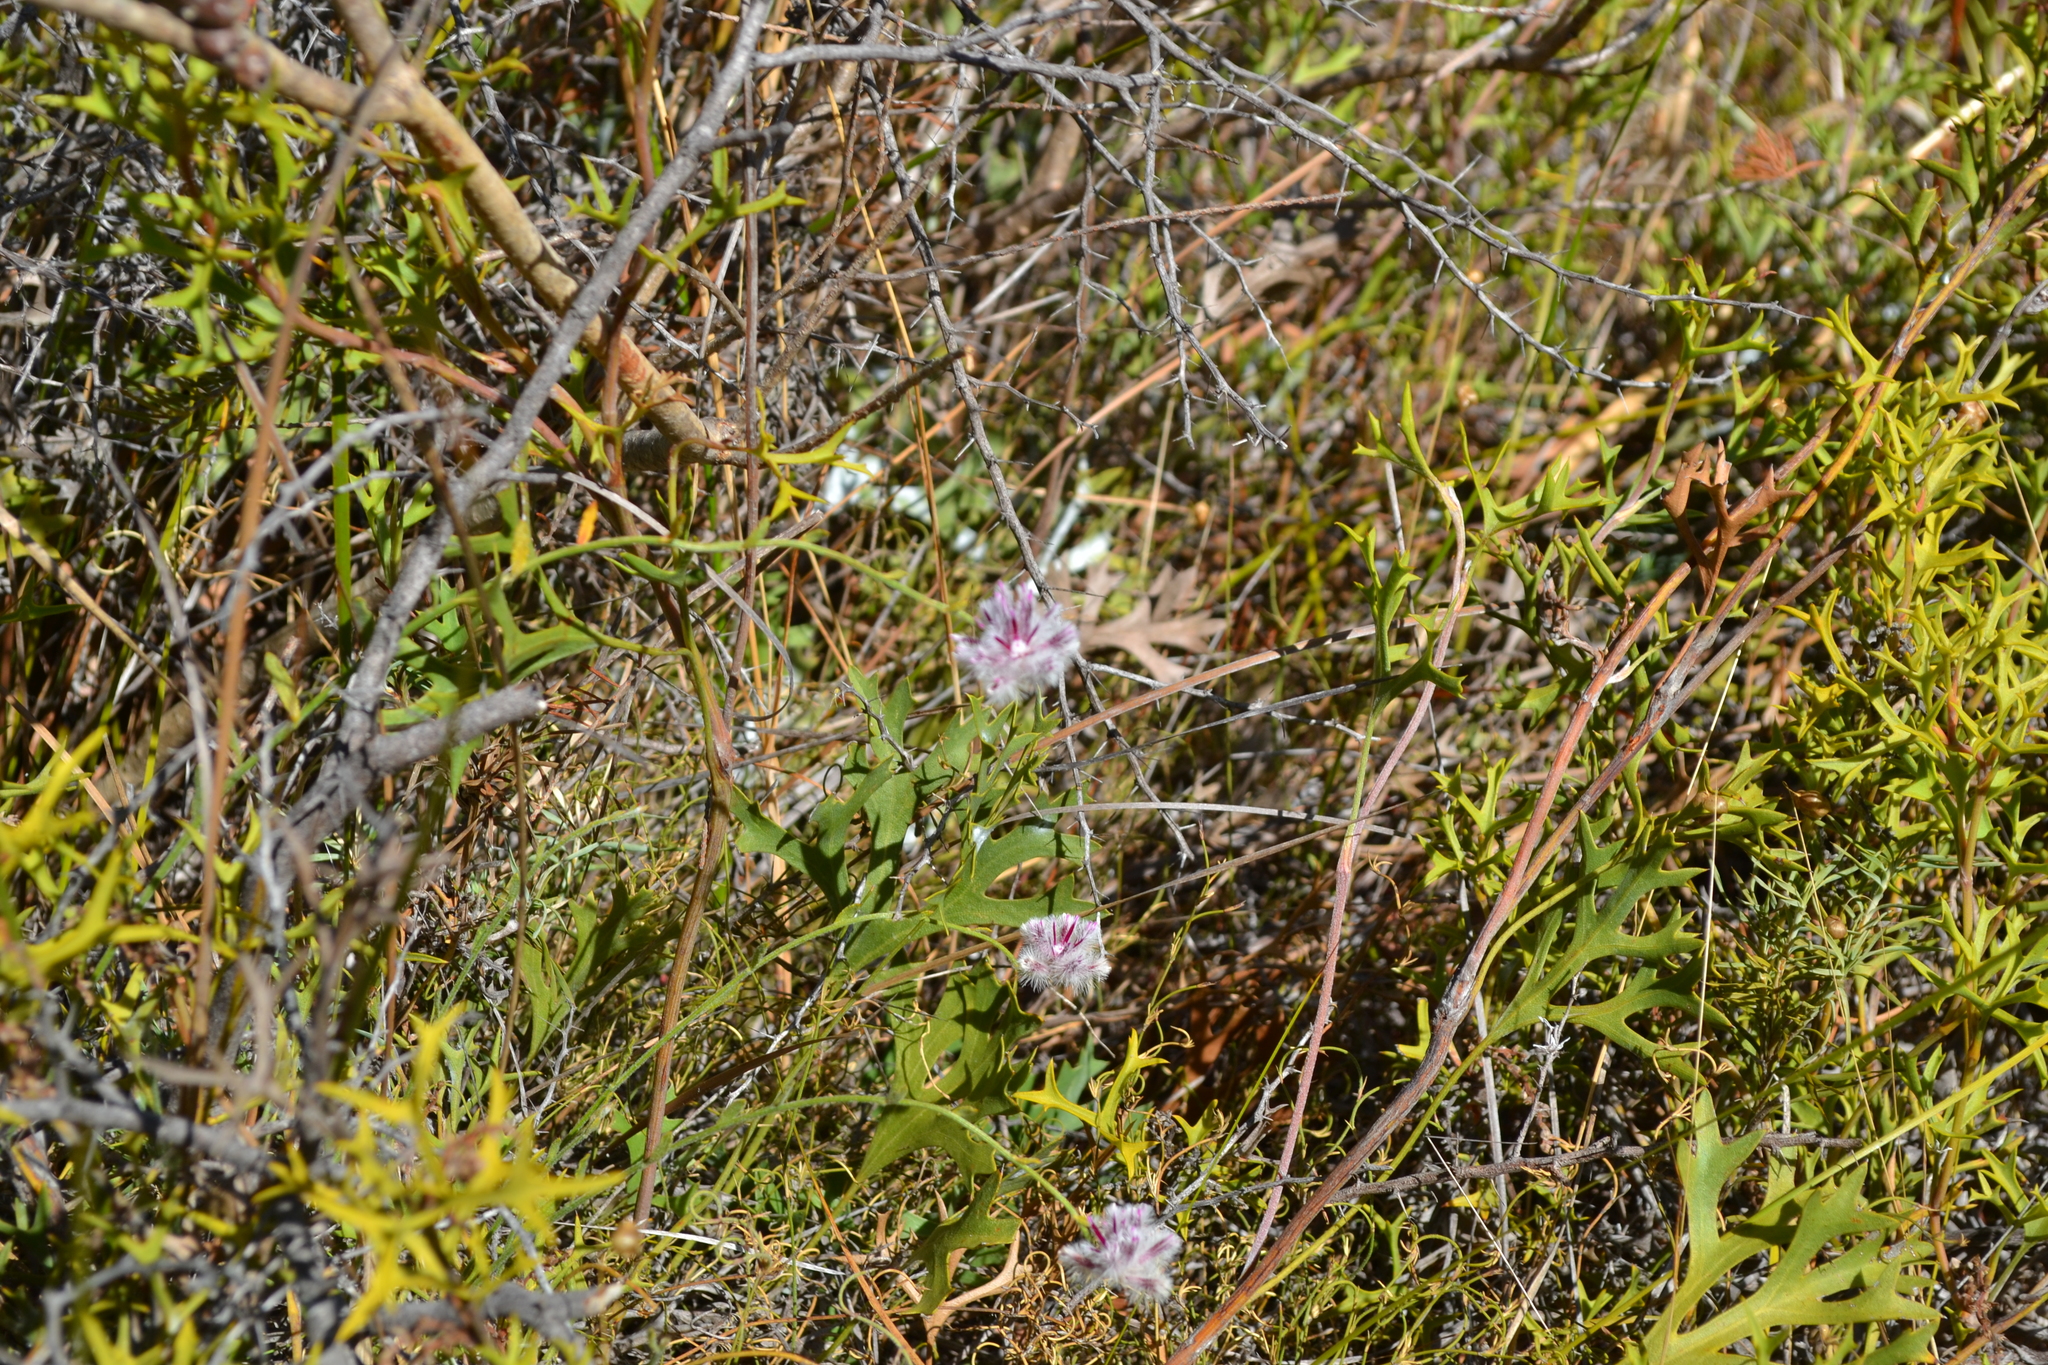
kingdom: Plantae
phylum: Tracheophyta
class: Magnoliopsida
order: Caryophyllales
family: Amaranthaceae
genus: Ptilotus
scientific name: Ptilotus stirlingii
